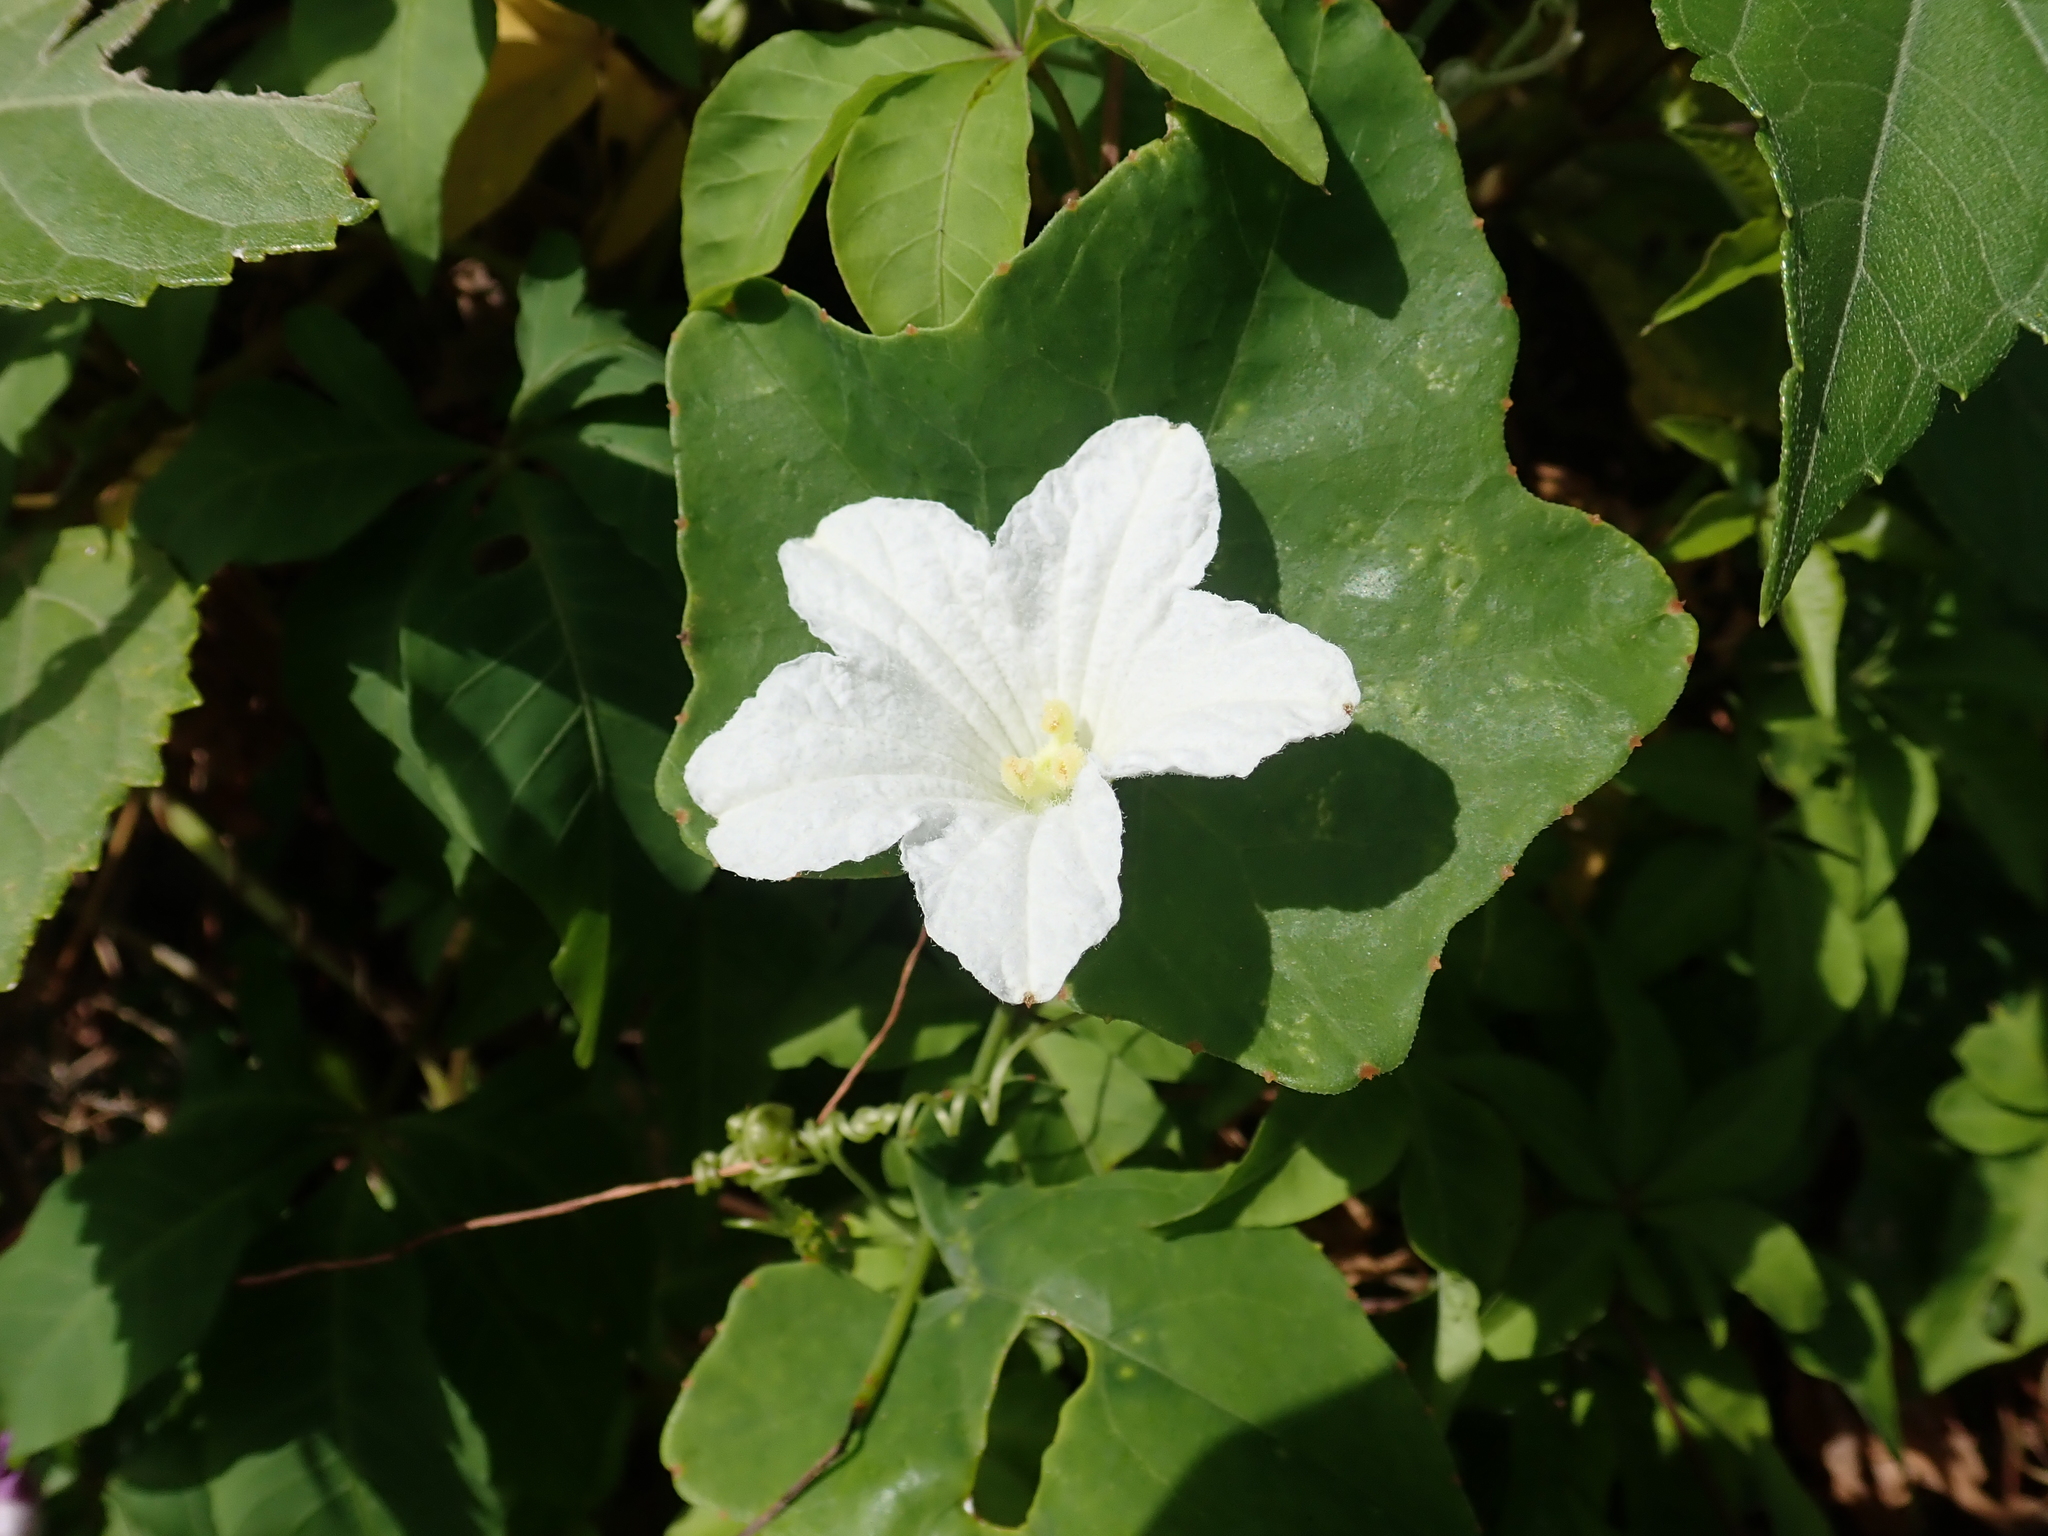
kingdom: Plantae
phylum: Tracheophyta
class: Magnoliopsida
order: Cucurbitales
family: Cucurbitaceae
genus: Coccinia
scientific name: Coccinia grandis
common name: Ivy gourd
